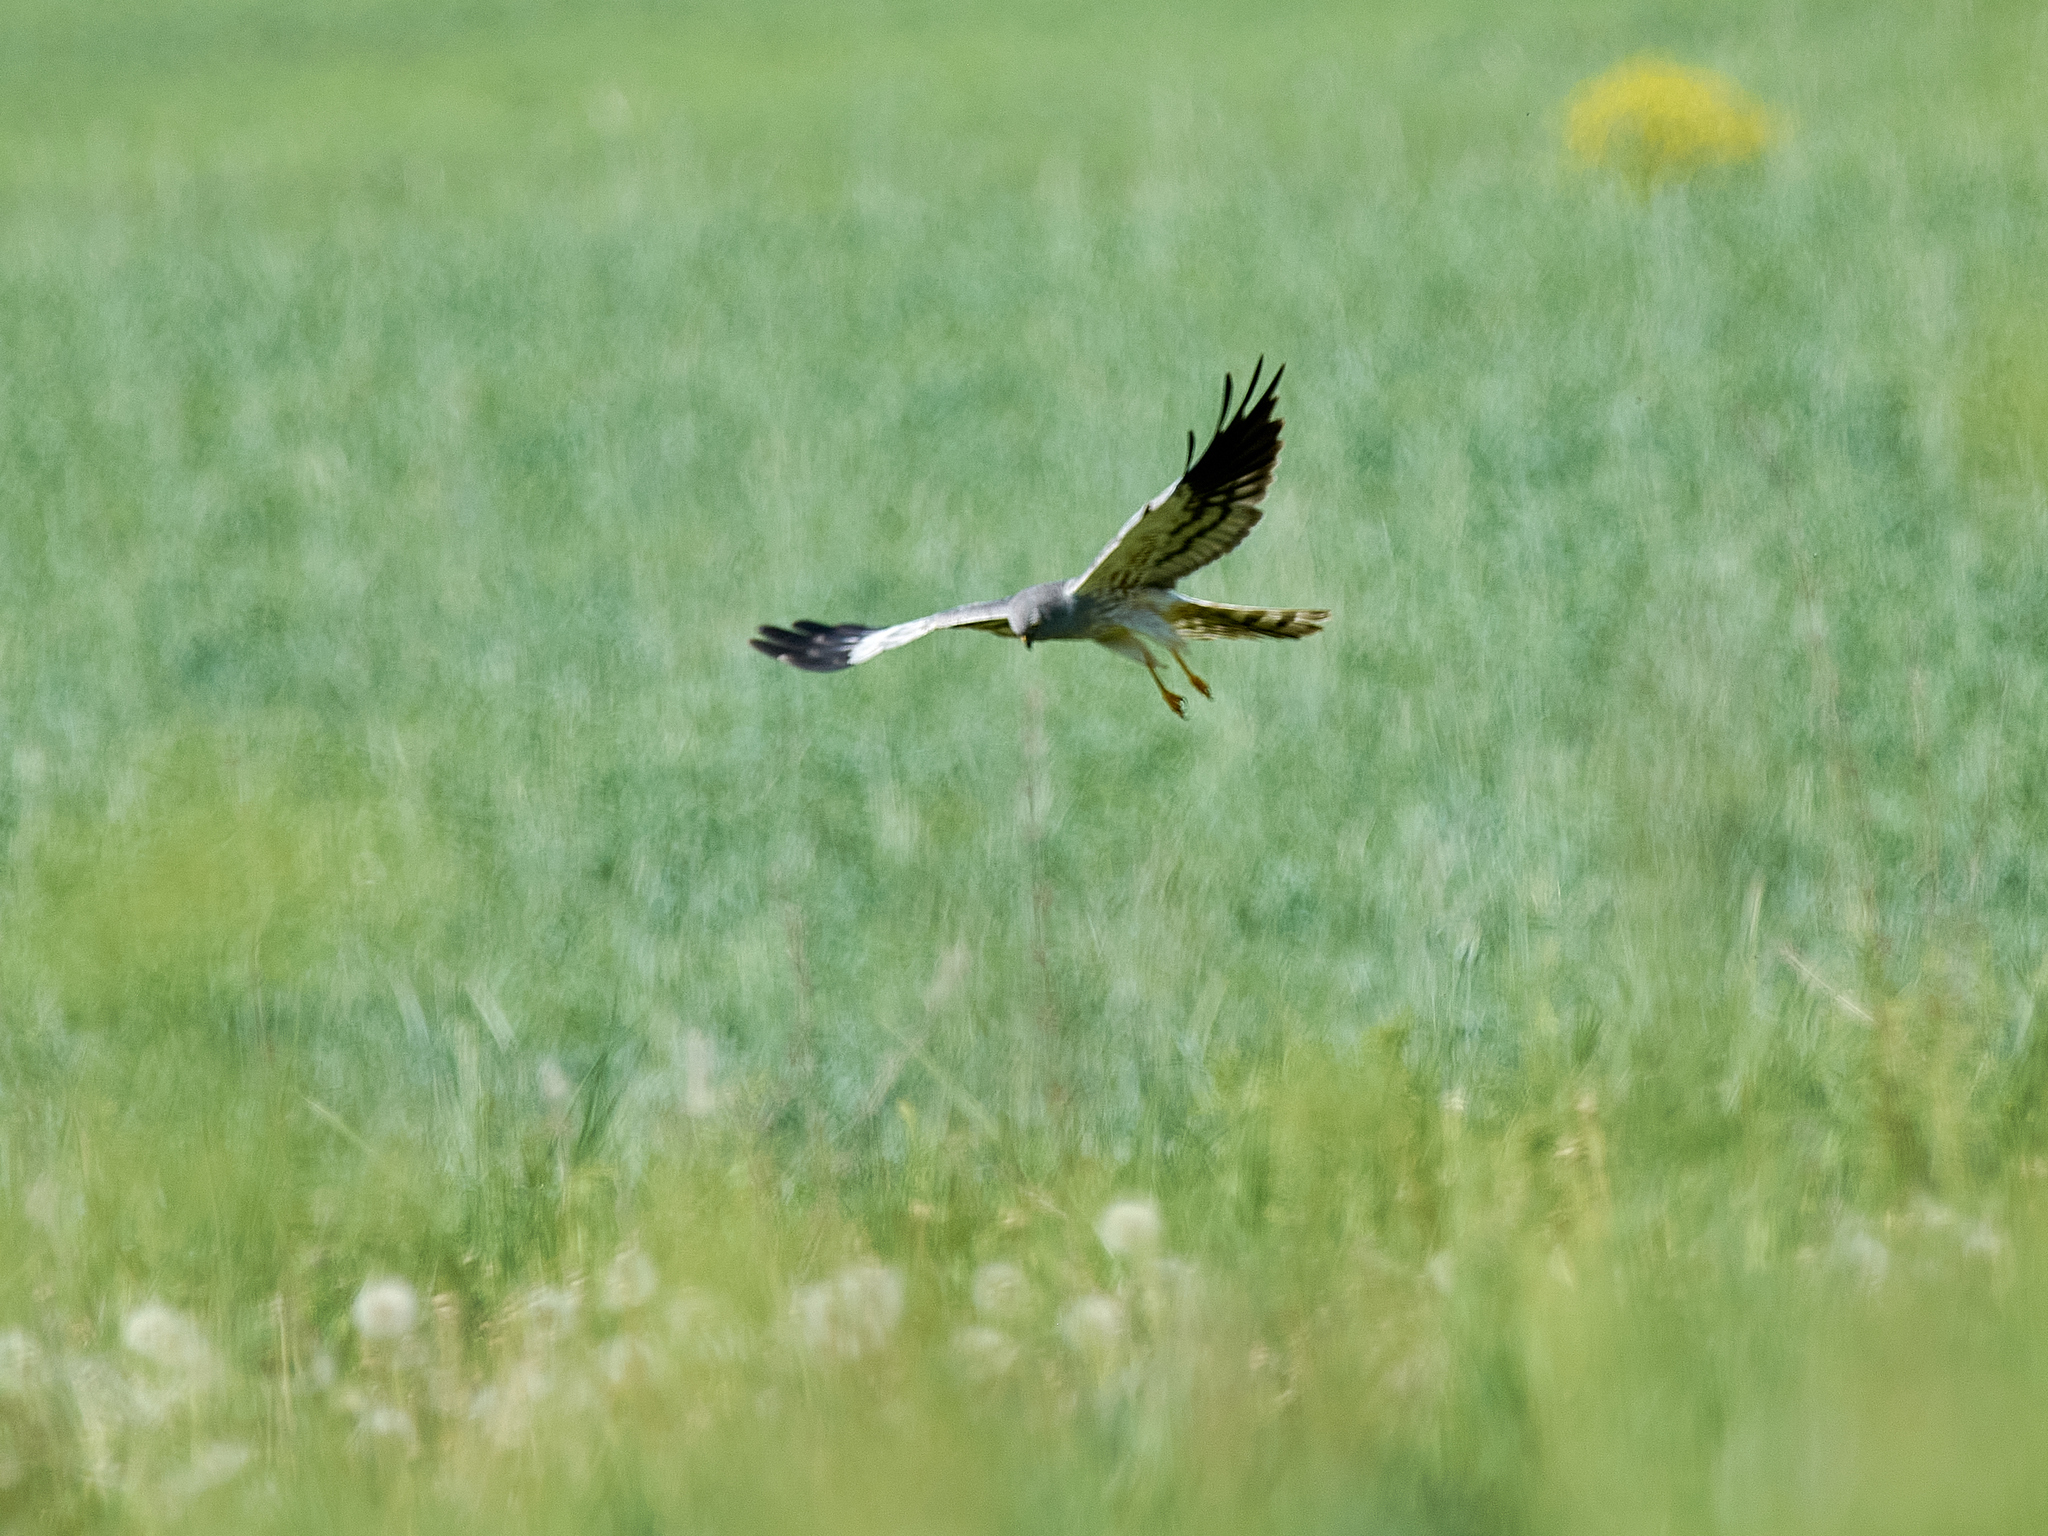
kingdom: Animalia
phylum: Chordata
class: Aves
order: Accipitriformes
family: Accipitridae
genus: Circus
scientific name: Circus pygargus
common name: Montagu's harrier
